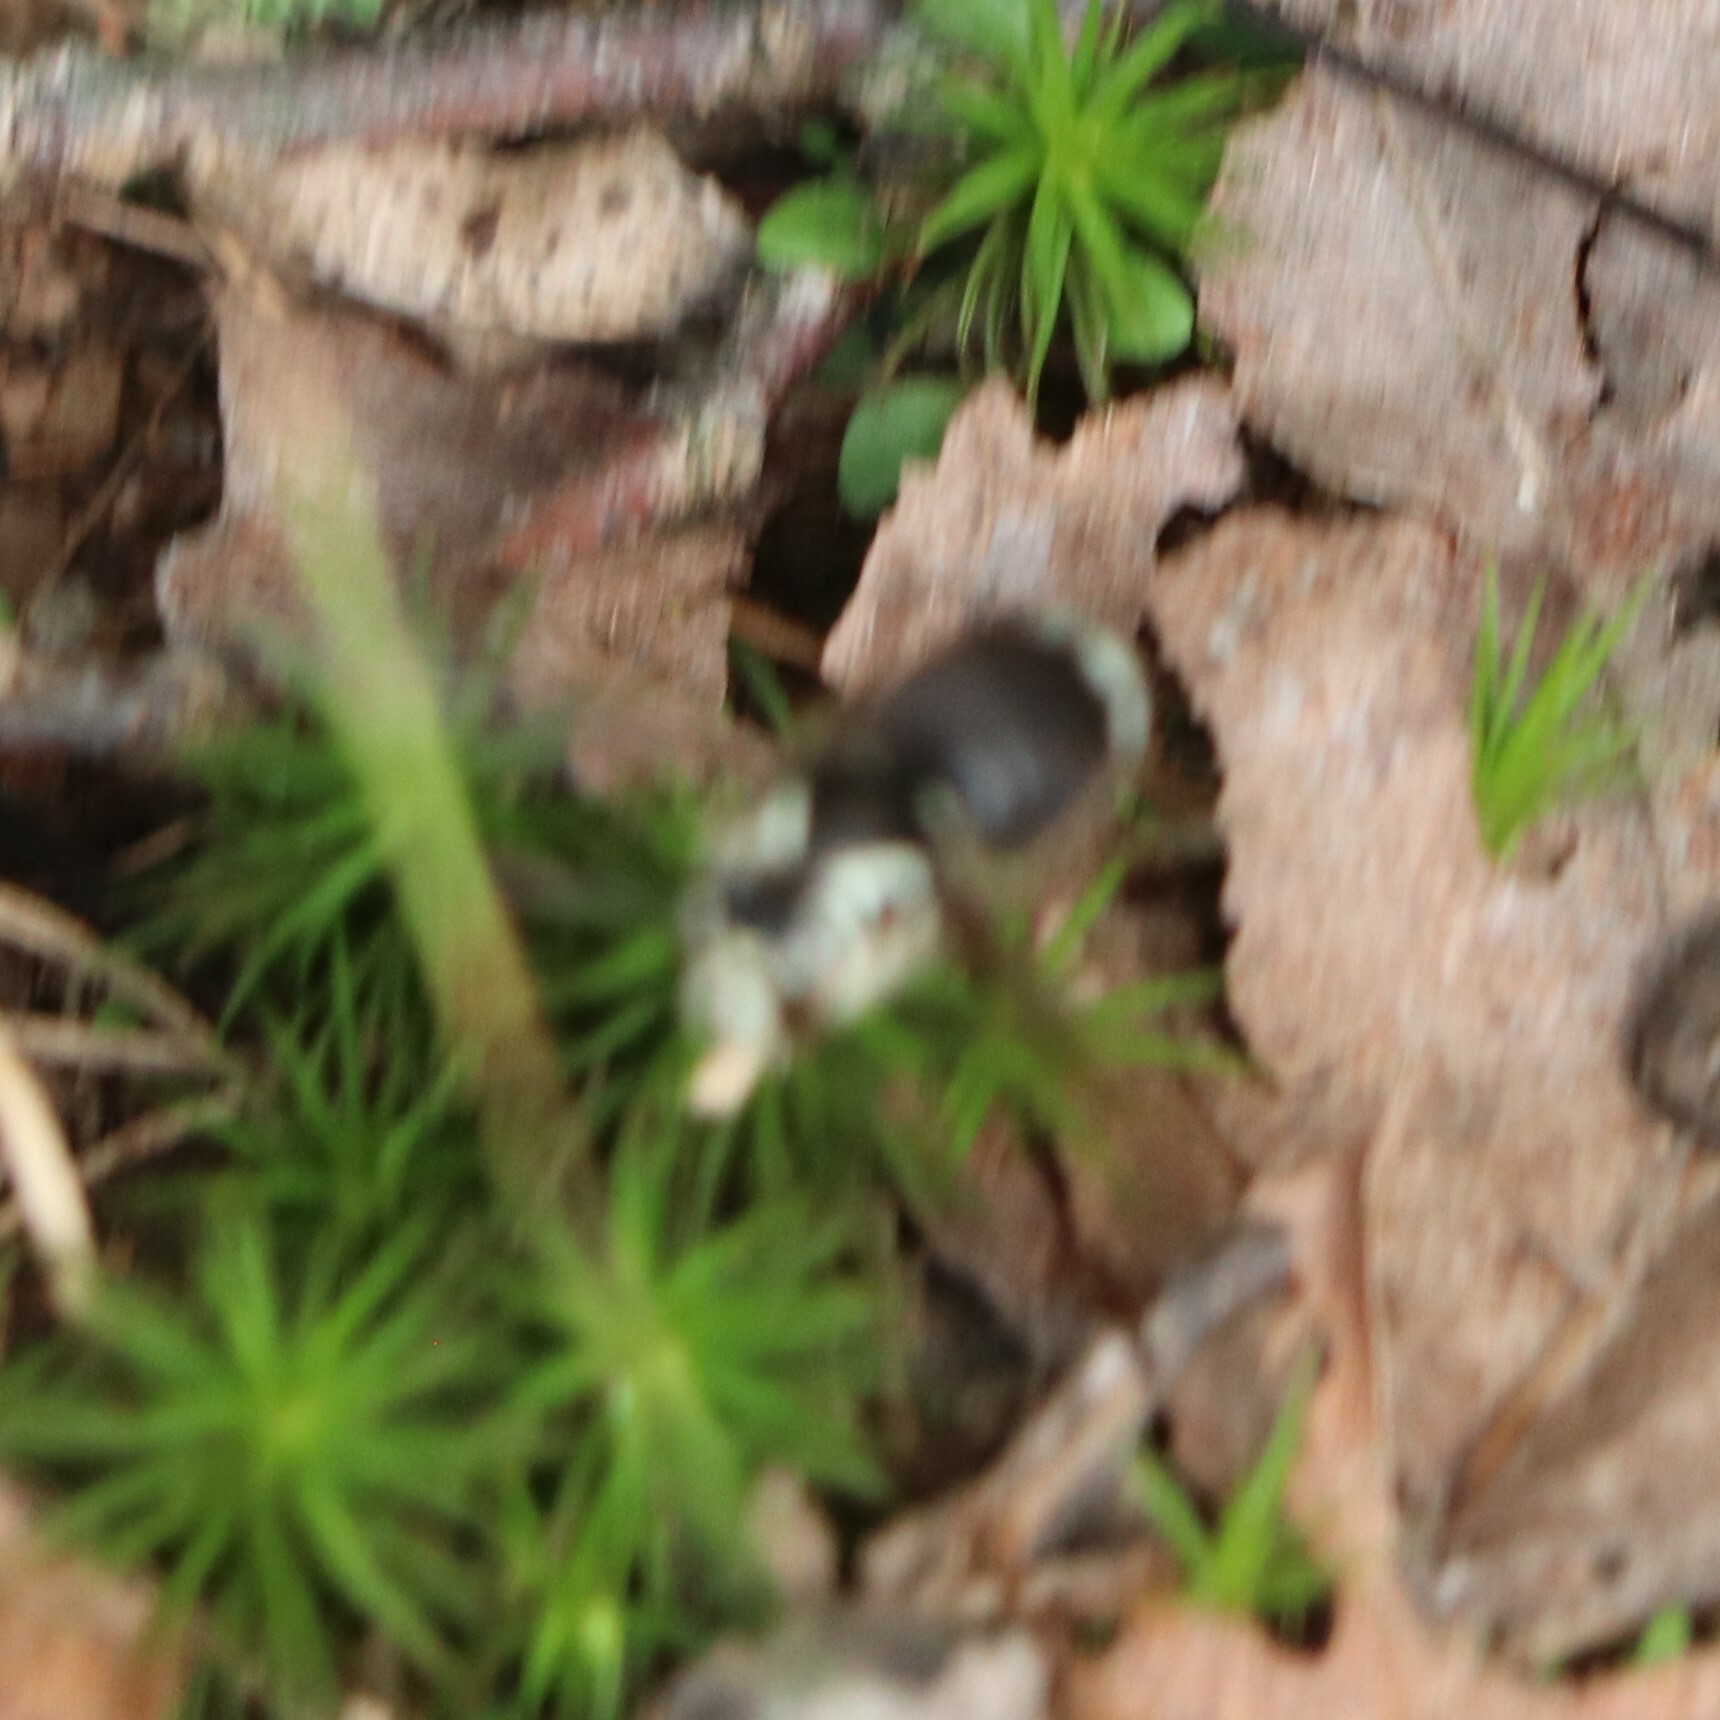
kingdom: Animalia
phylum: Arthropoda
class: Insecta
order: Hymenoptera
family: Vespidae
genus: Dolichovespula
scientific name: Dolichovespula maculata
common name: Bald-faced hornet
